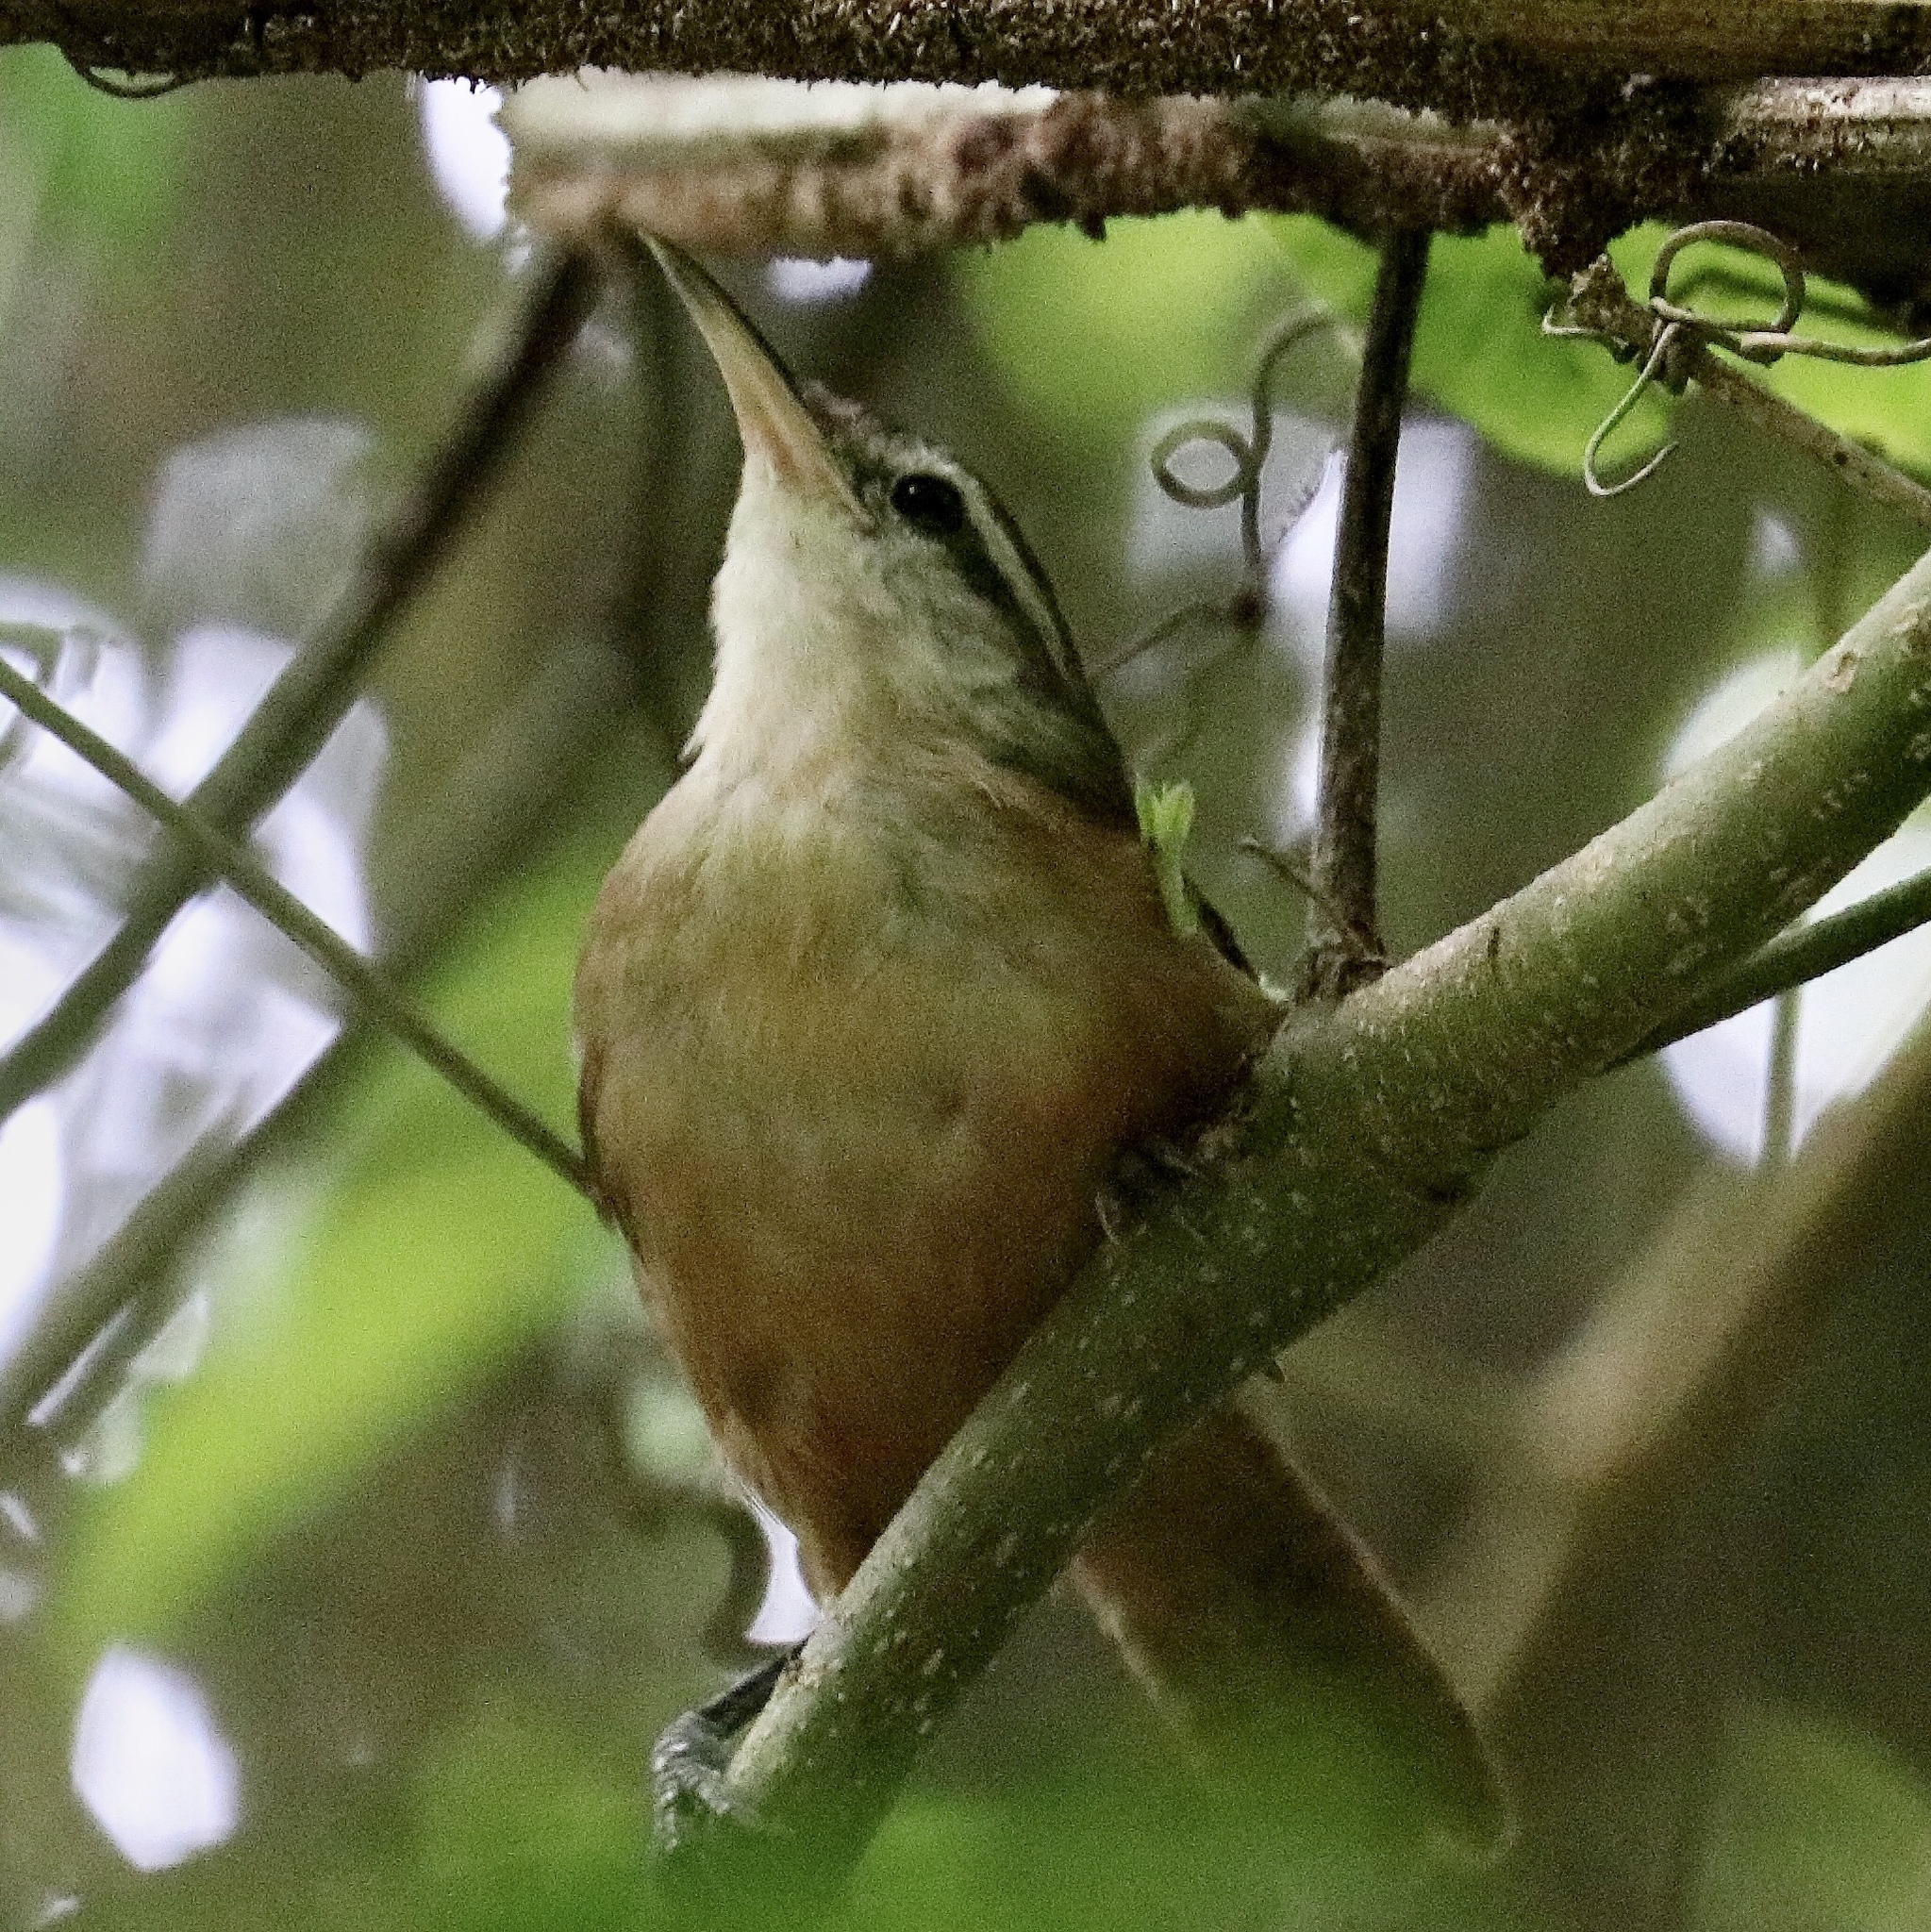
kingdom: Animalia
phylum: Chordata
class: Aves
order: Passeriformes
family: Troglodytidae
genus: Cantorchilus
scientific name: Cantorchilus leucotis
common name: Buff-breasted wren
